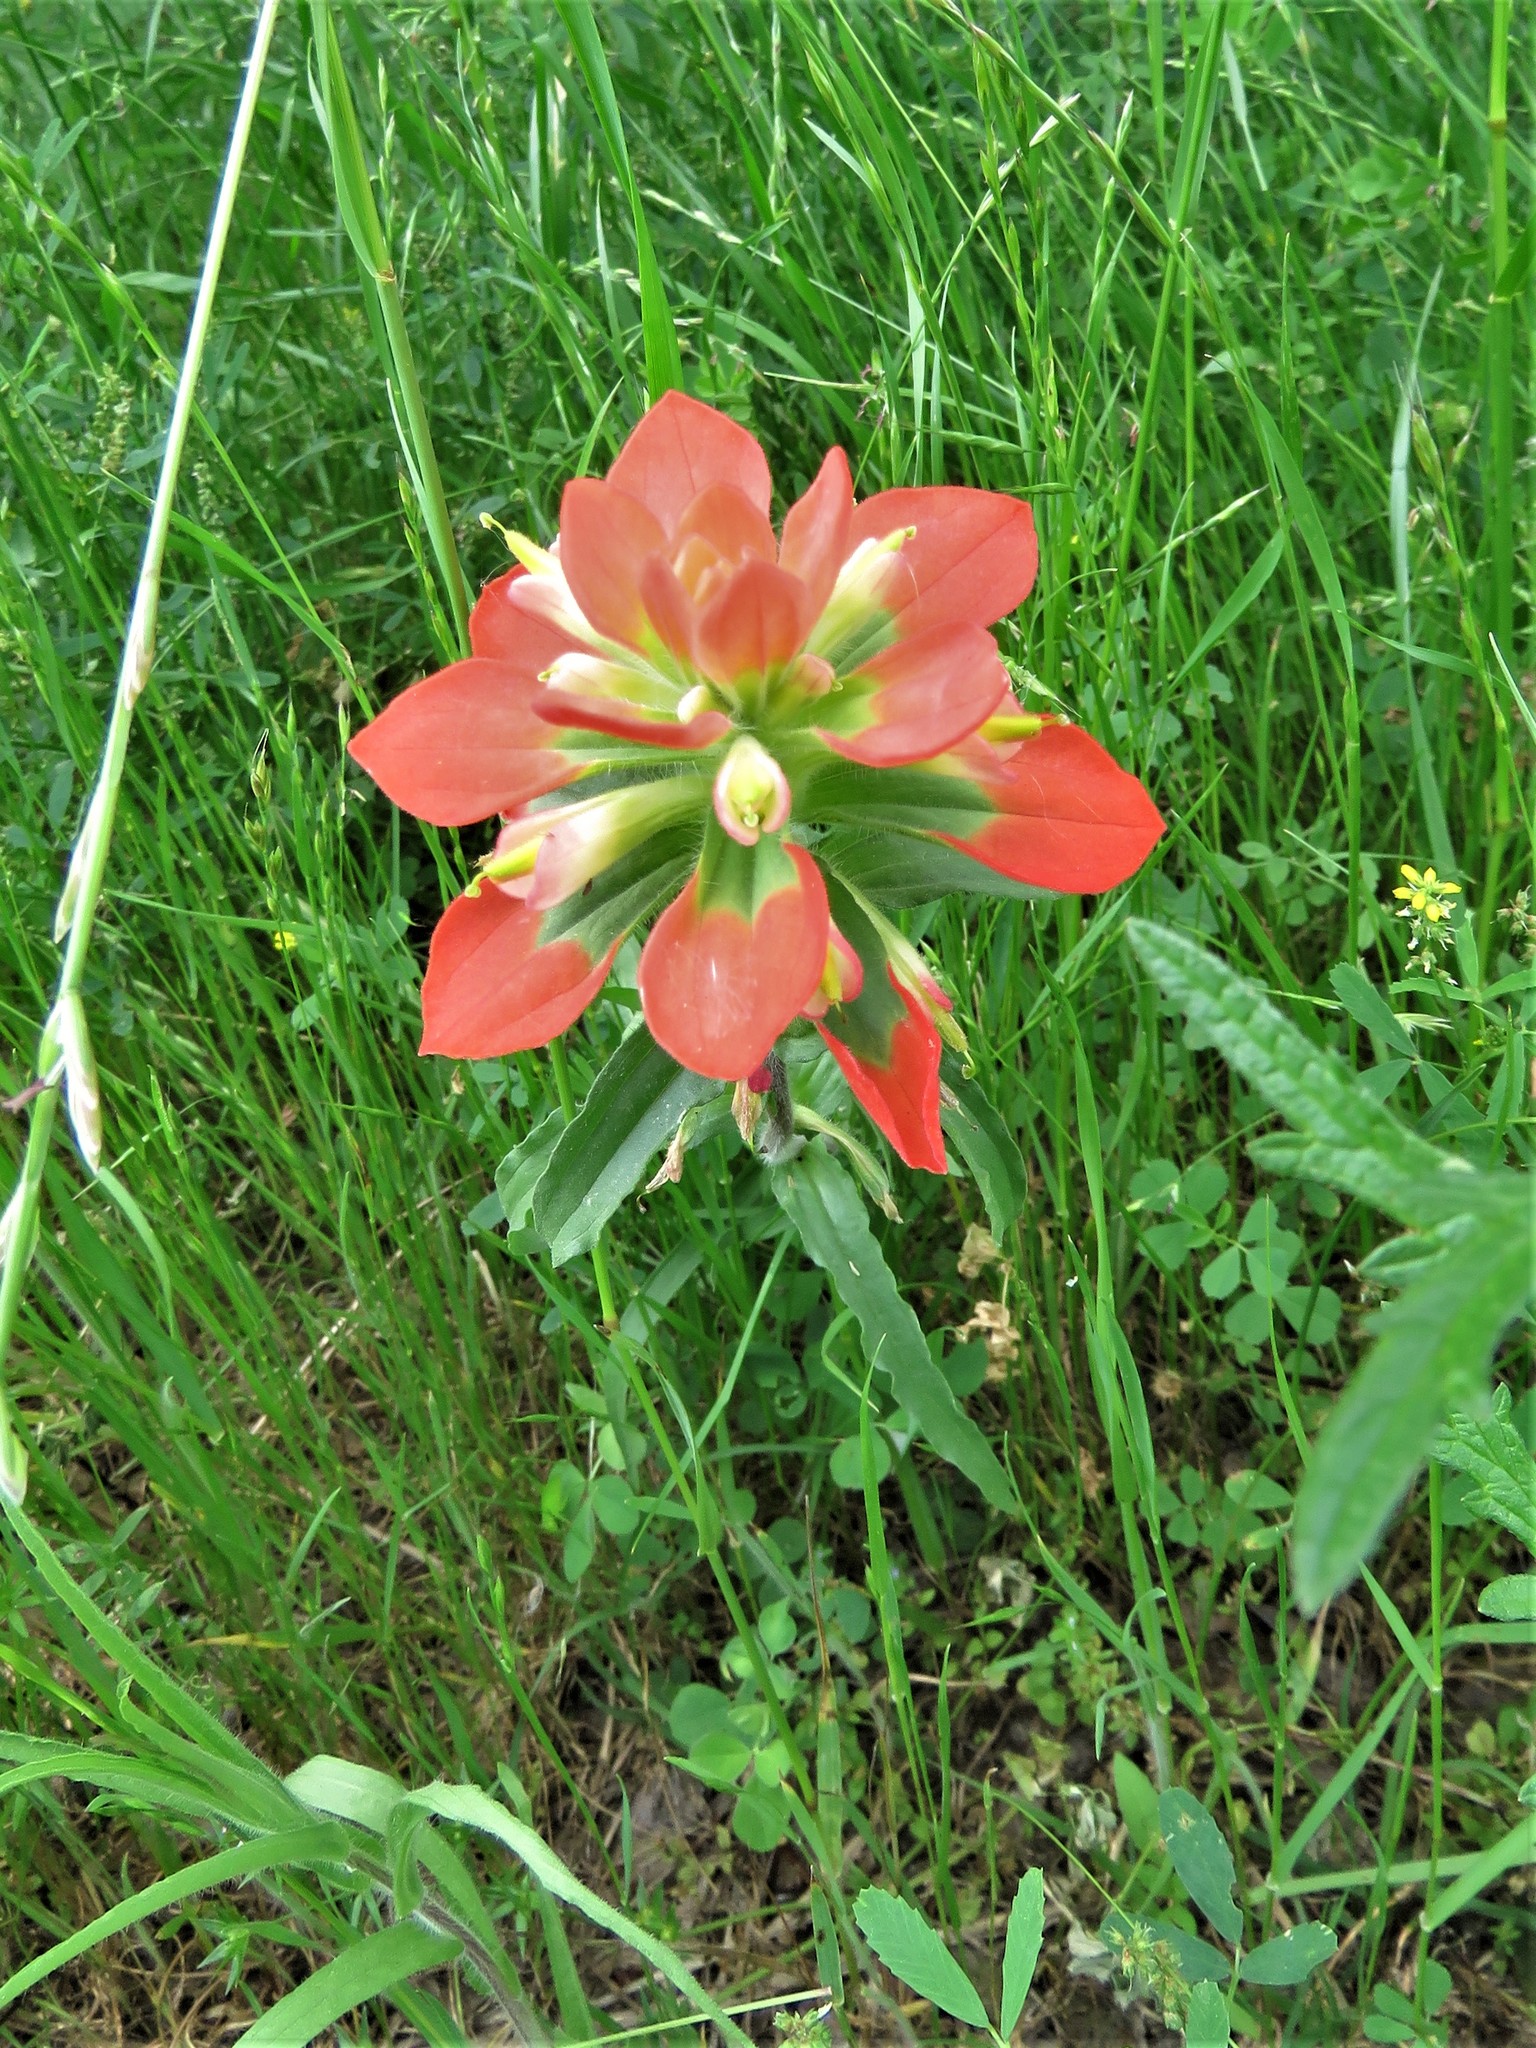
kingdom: Plantae
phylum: Tracheophyta
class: Magnoliopsida
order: Lamiales
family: Orobanchaceae
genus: Castilleja
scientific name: Castilleja indivisa
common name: Texas paintbrush
